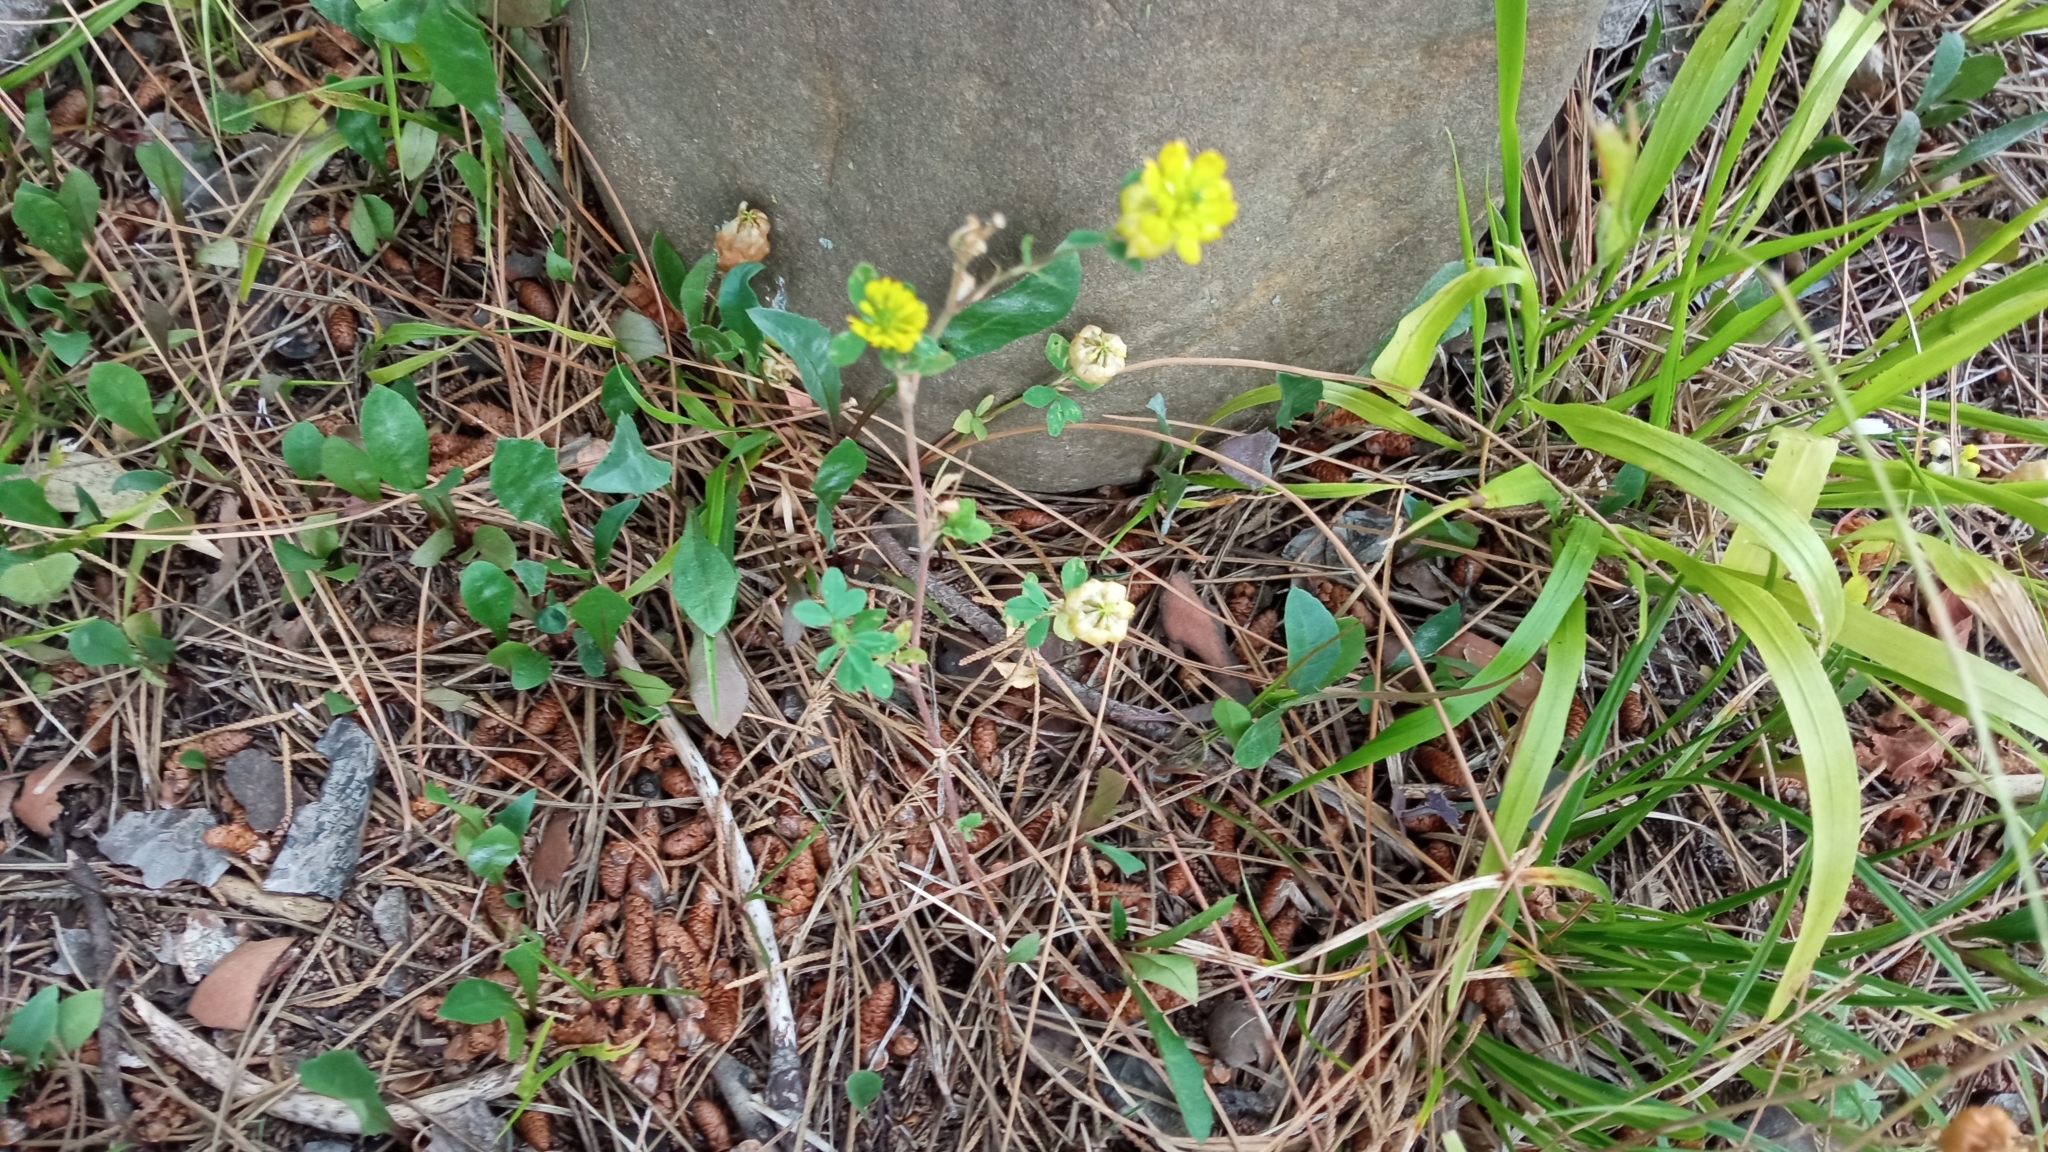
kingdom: Plantae
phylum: Tracheophyta
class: Magnoliopsida
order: Fabales
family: Fabaceae
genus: Trifolium
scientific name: Trifolium campestre
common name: Field clover
